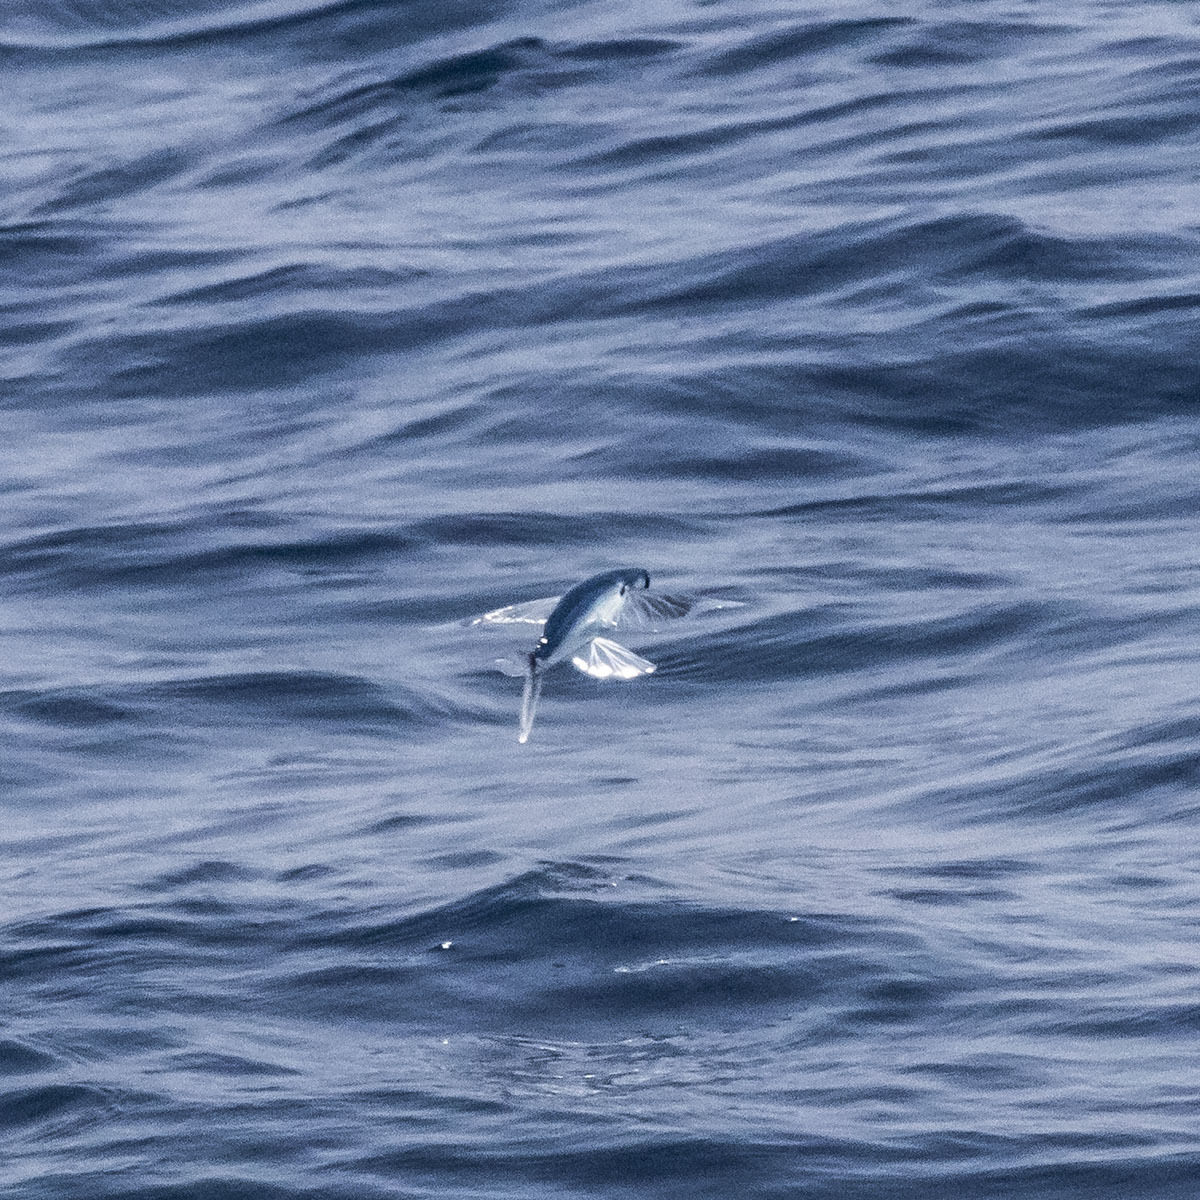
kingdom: Animalia
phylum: Chordata
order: Beloniformes
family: Exocoetidae
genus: Cypselurus
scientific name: Cypselurus oligolepis
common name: Largescale flyingfish
